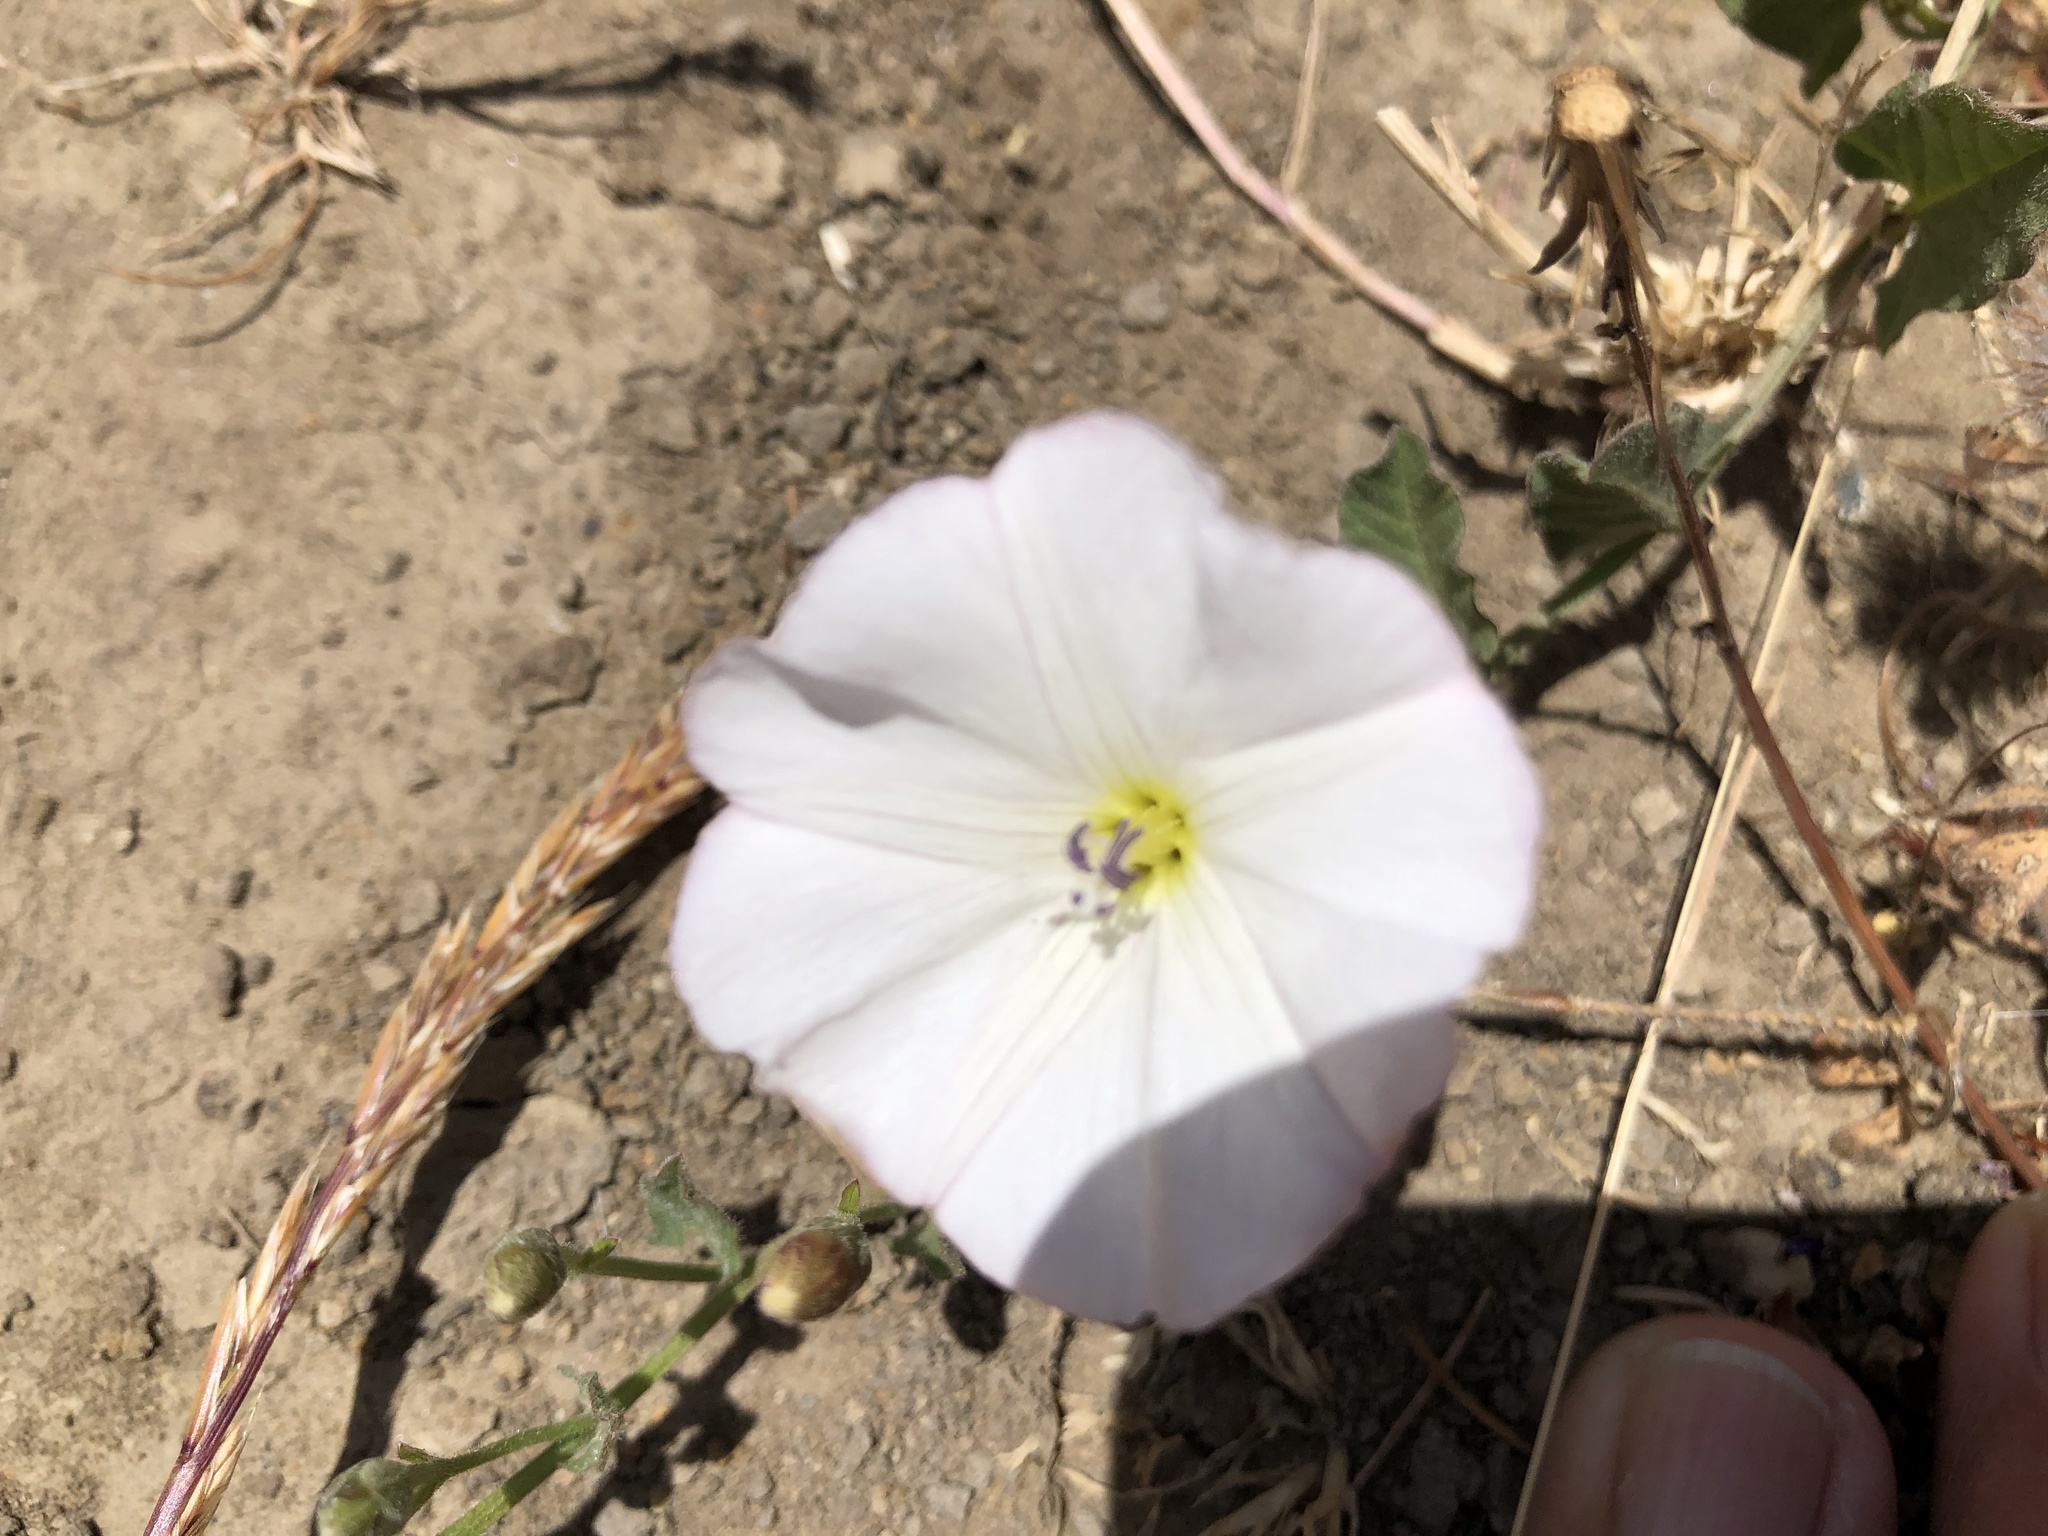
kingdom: Plantae
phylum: Tracheophyta
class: Magnoliopsida
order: Solanales
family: Convolvulaceae
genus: Convolvulus
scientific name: Convolvulus arvensis
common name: Field bindweed
